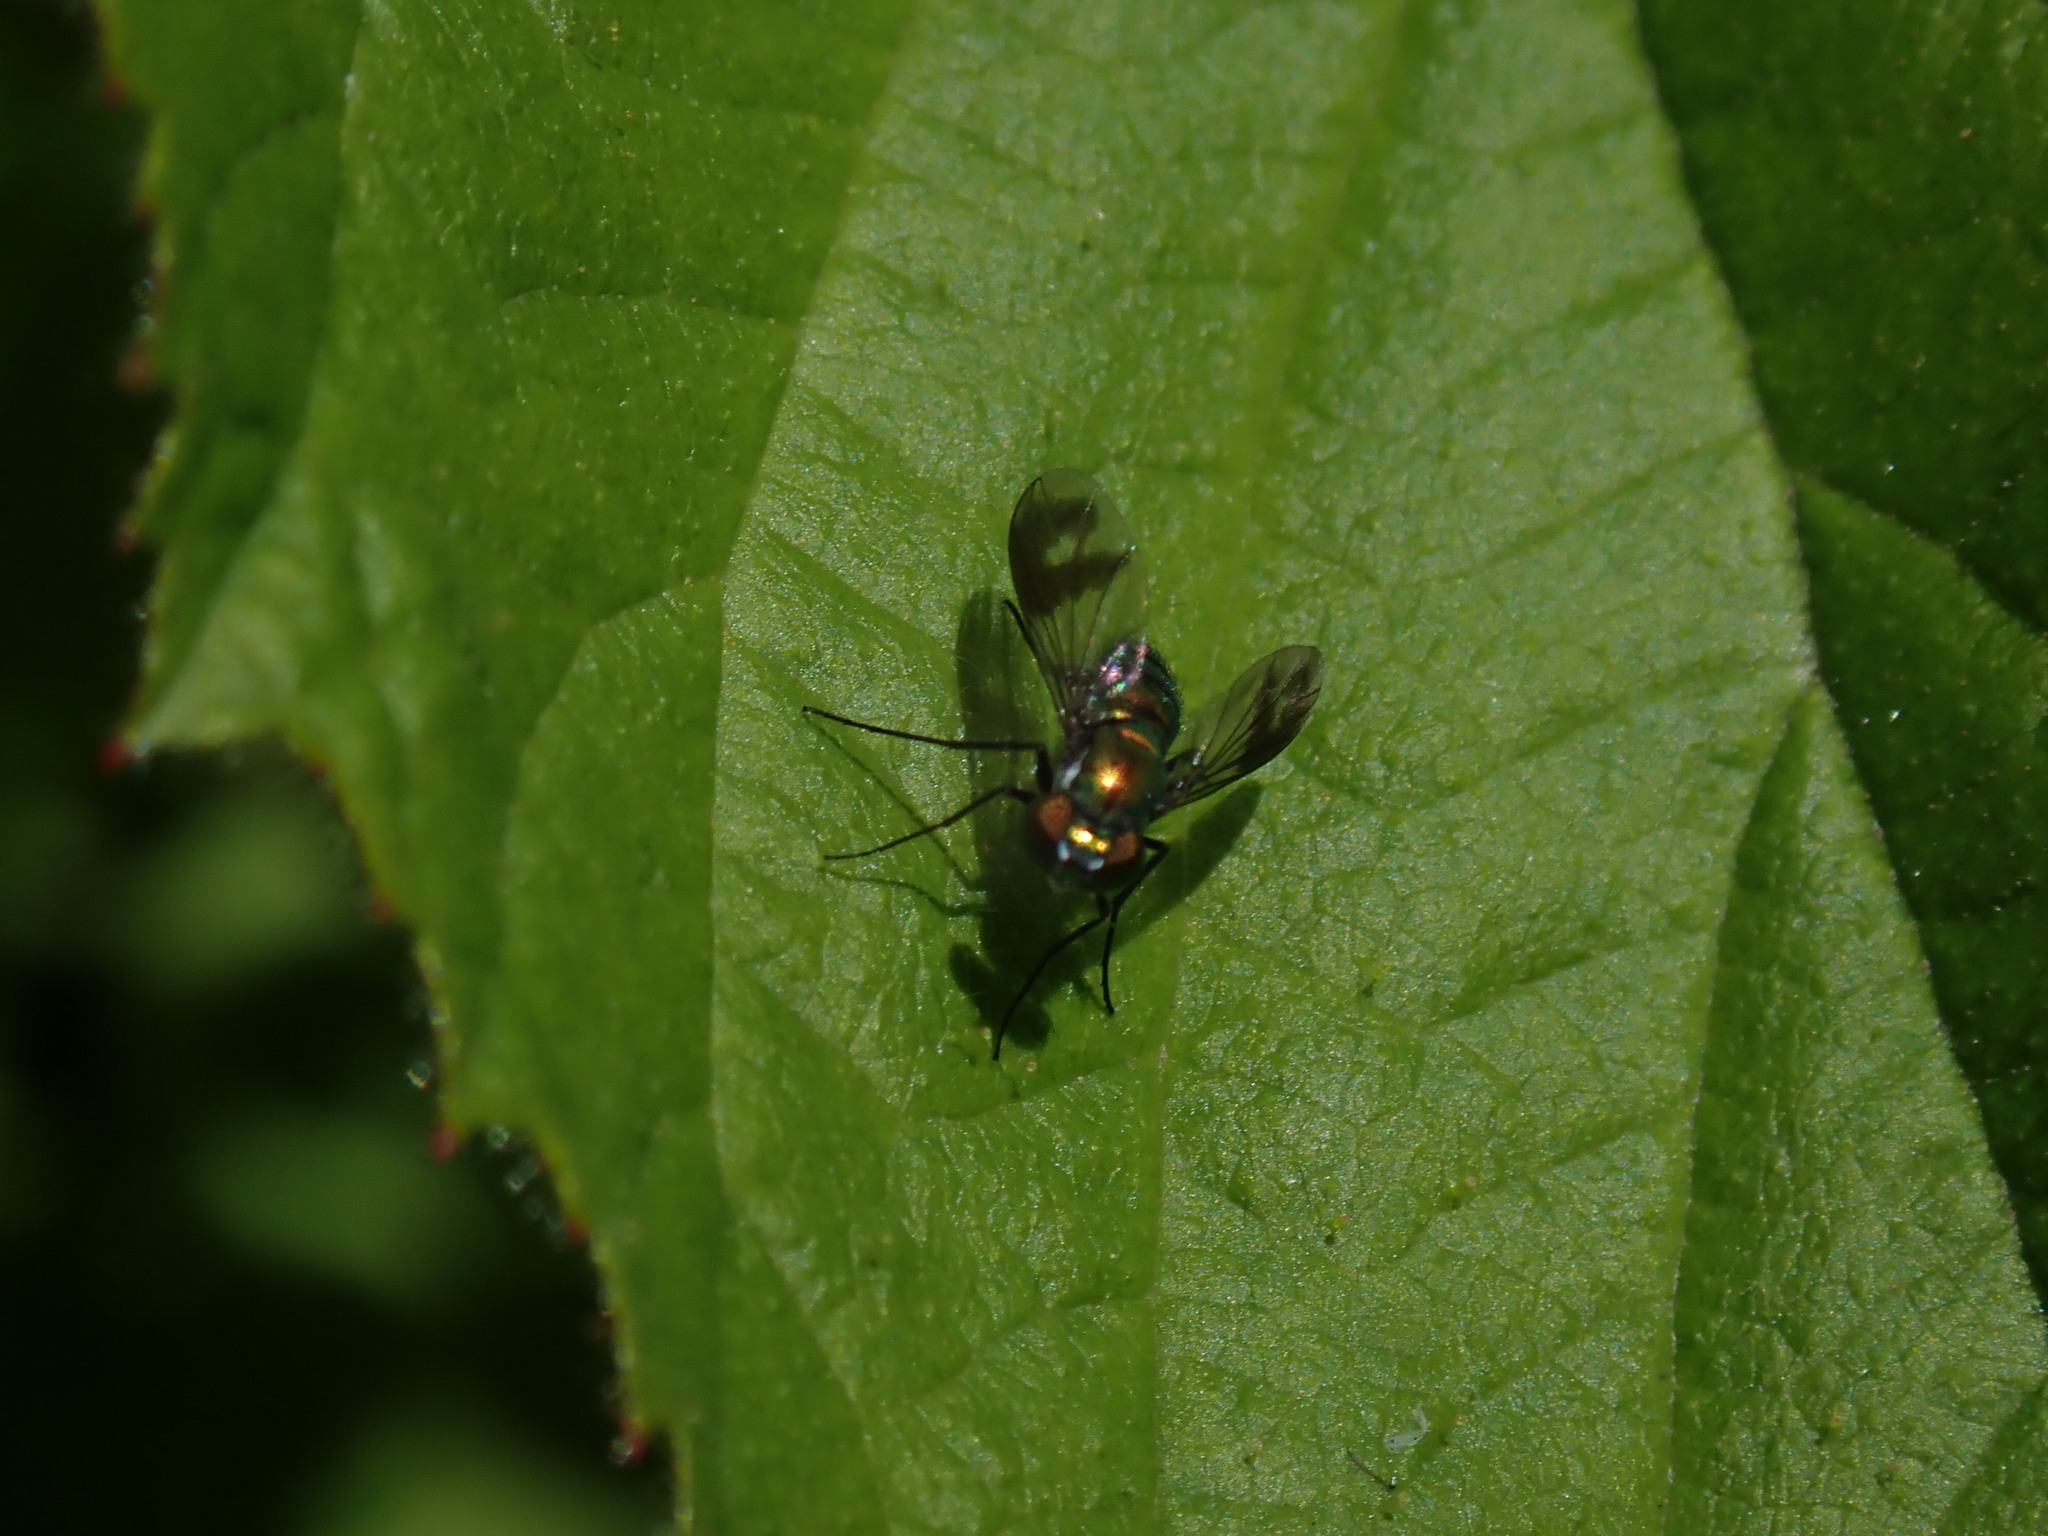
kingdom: Animalia
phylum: Arthropoda
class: Insecta
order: Diptera
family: Dolichopodidae
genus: Condylostylus
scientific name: Condylostylus patibulatus
